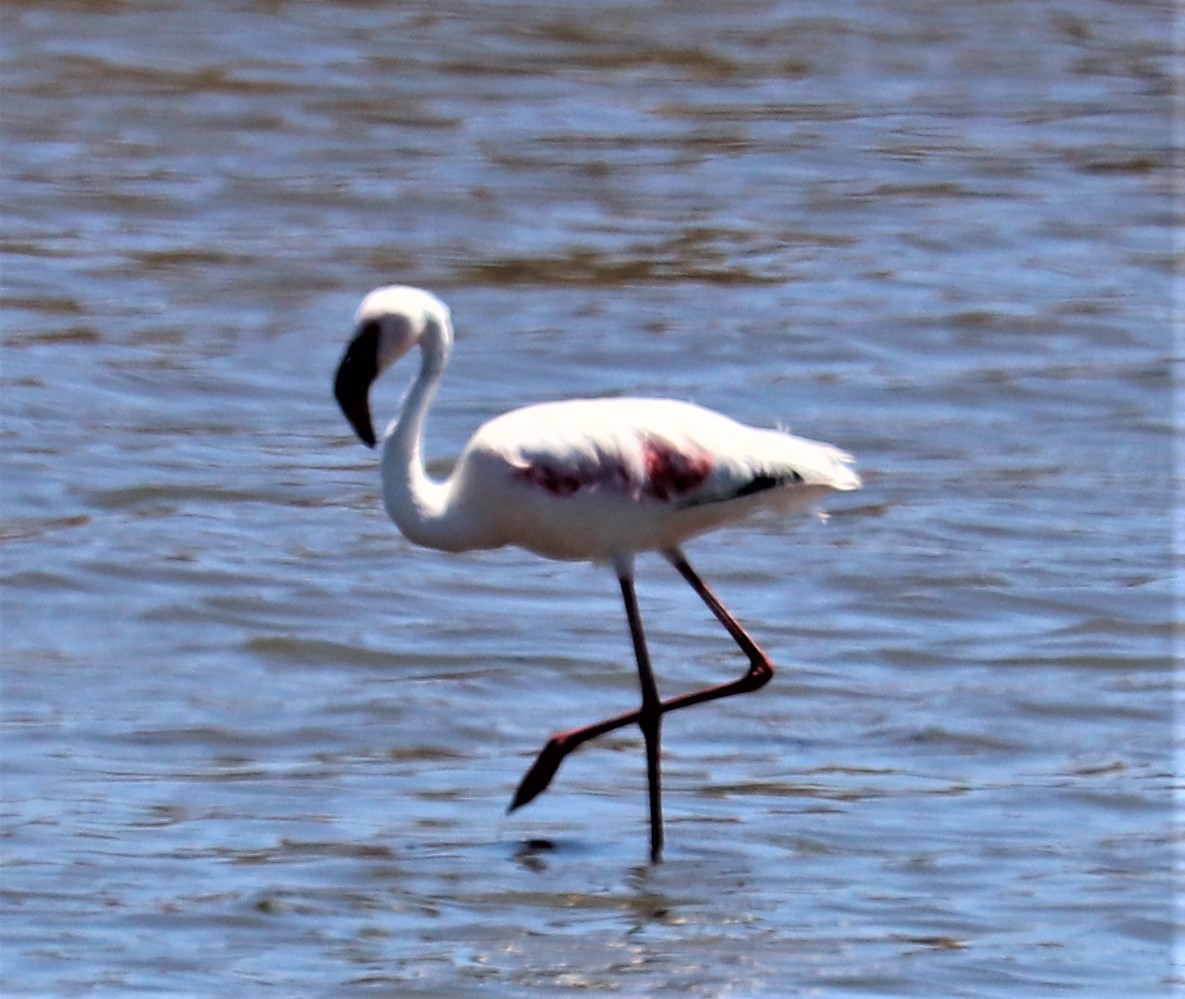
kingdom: Animalia
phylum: Chordata
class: Aves
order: Phoenicopteriformes
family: Phoenicopteridae
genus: Phoeniconaias
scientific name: Phoeniconaias minor
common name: Lesser flamingo
